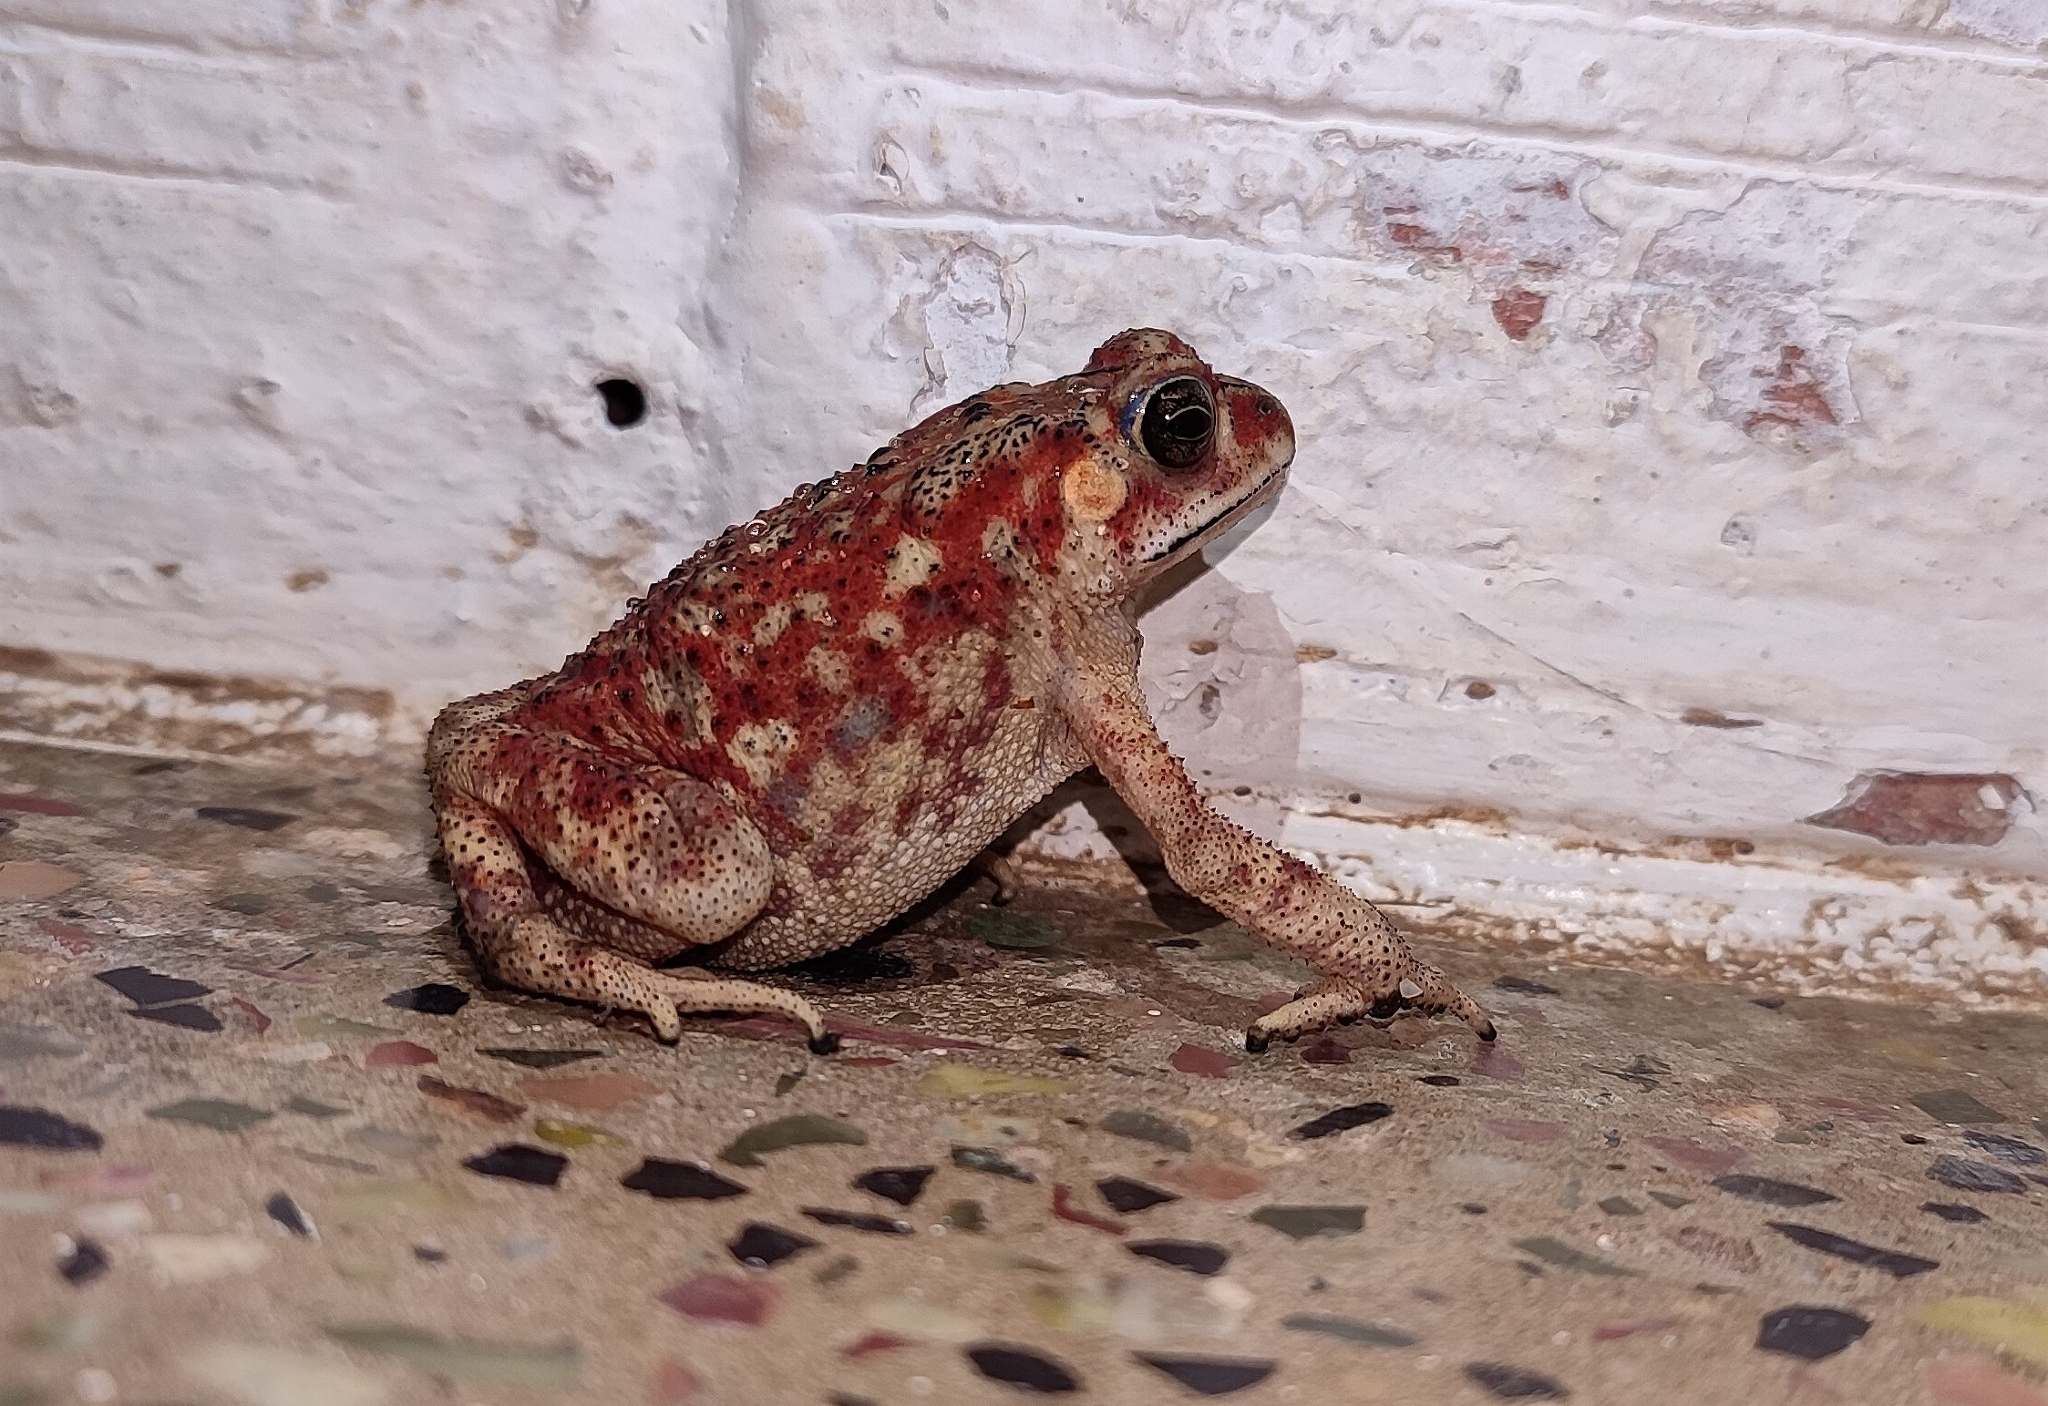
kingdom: Animalia
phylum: Chordata
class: Amphibia
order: Anura
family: Bufonidae
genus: Duttaphrynus
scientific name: Duttaphrynus melanostictus
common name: Common sunda toad
